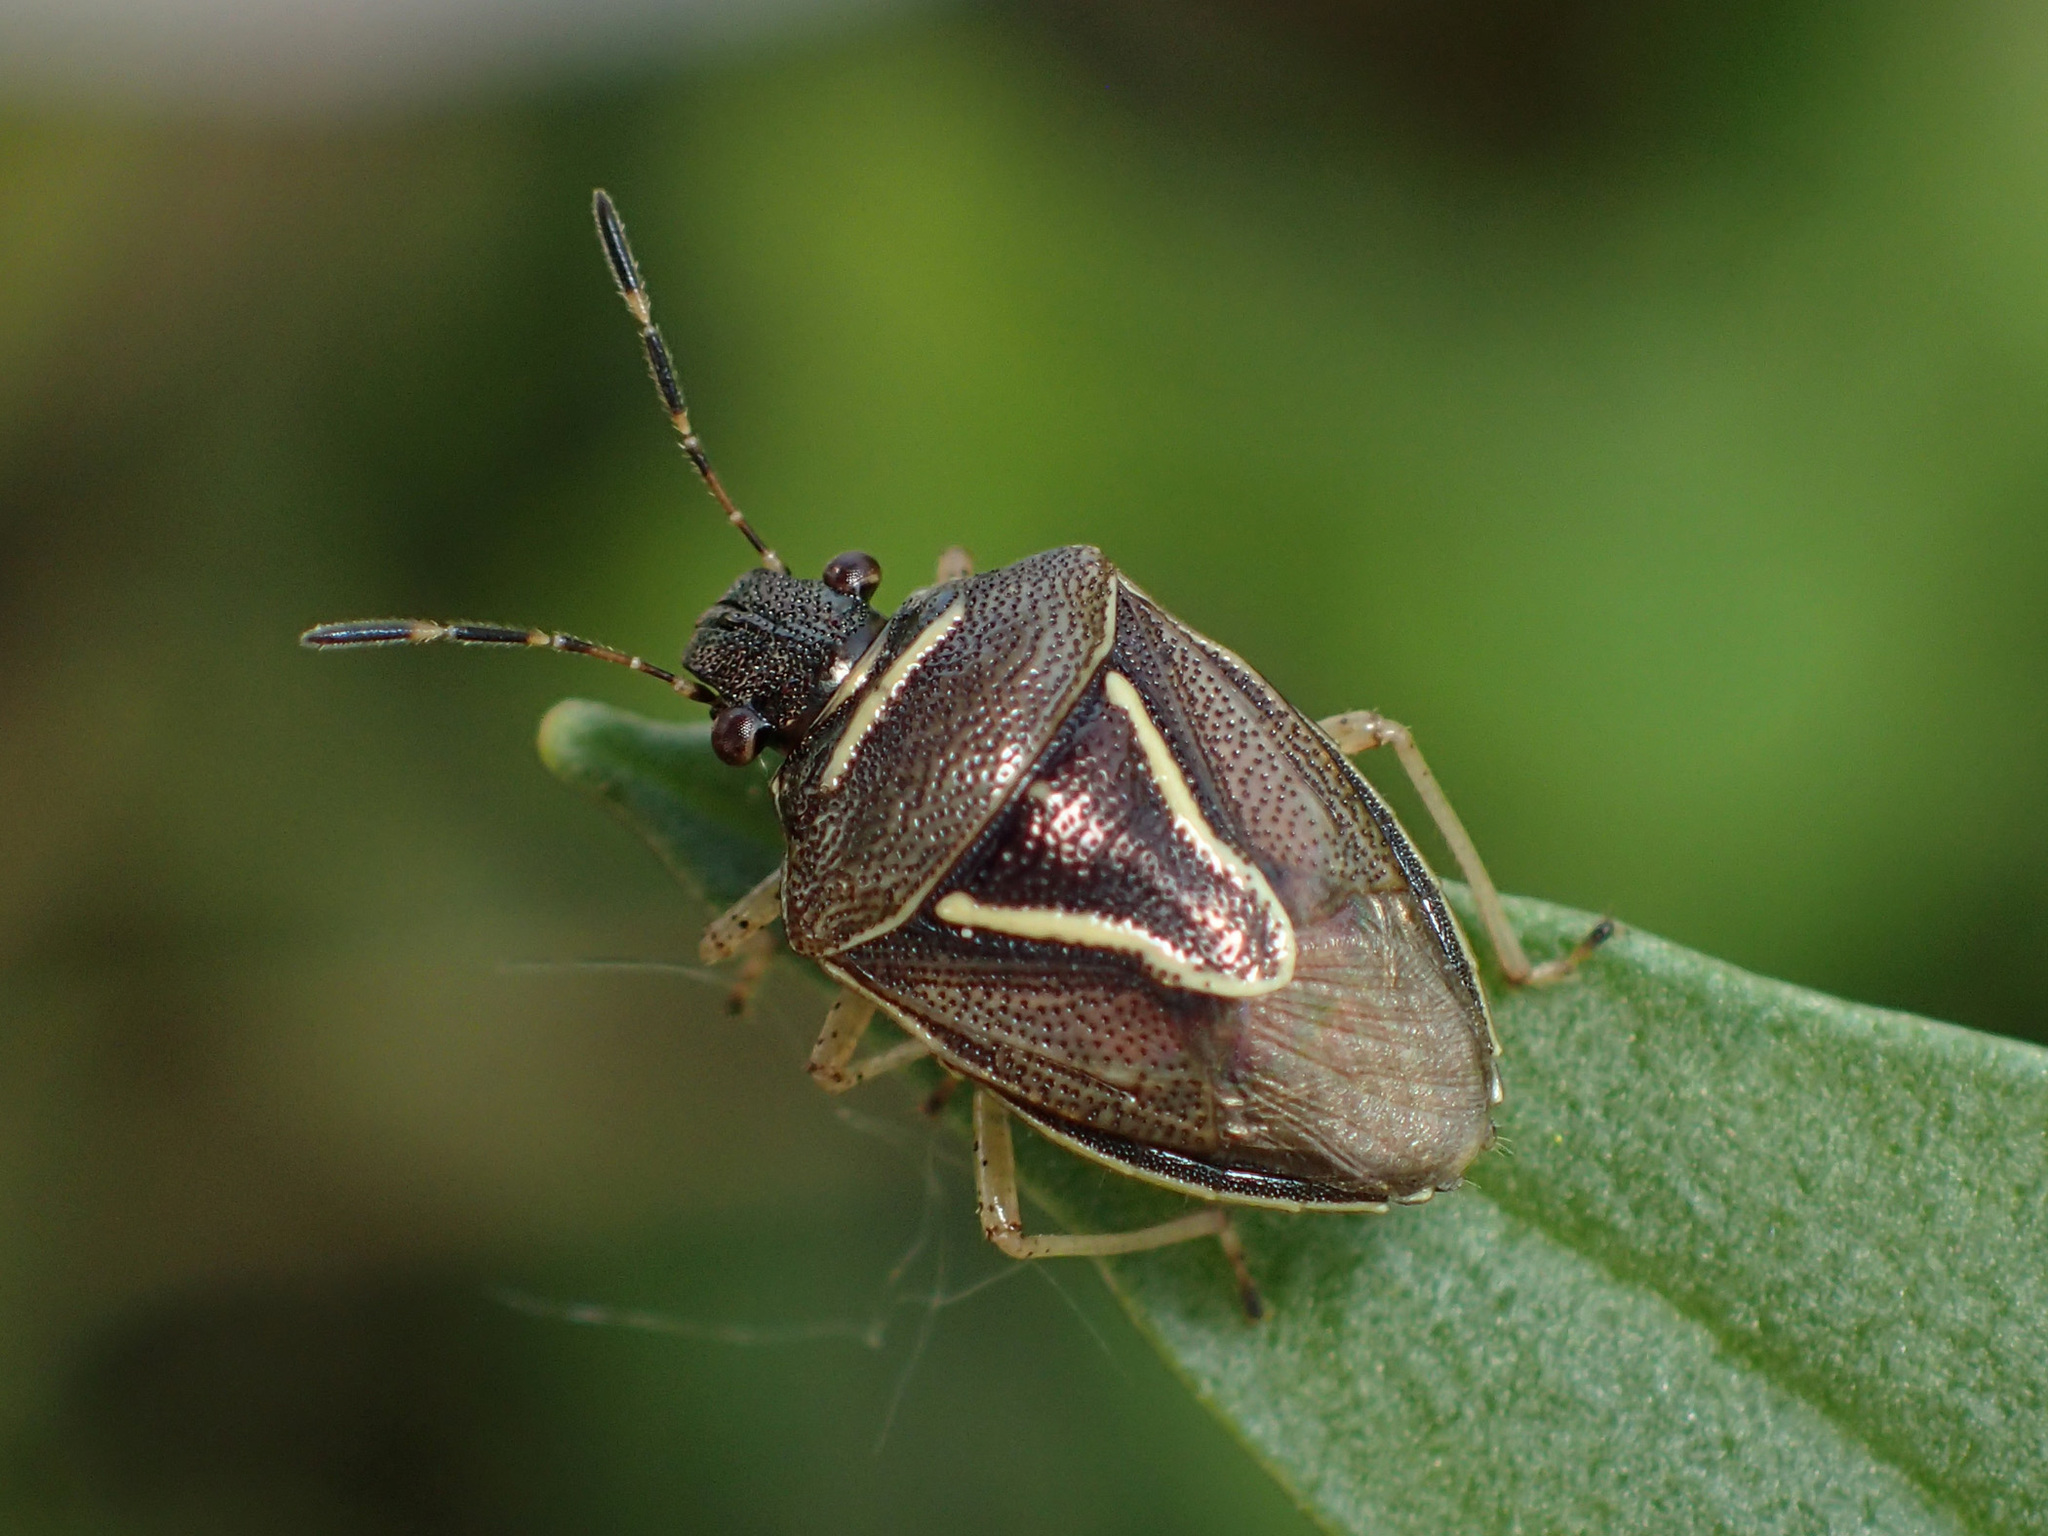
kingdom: Animalia
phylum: Arthropoda
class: Insecta
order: Hemiptera
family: Pentatomidae
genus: Mormidea
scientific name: Mormidea lugens
